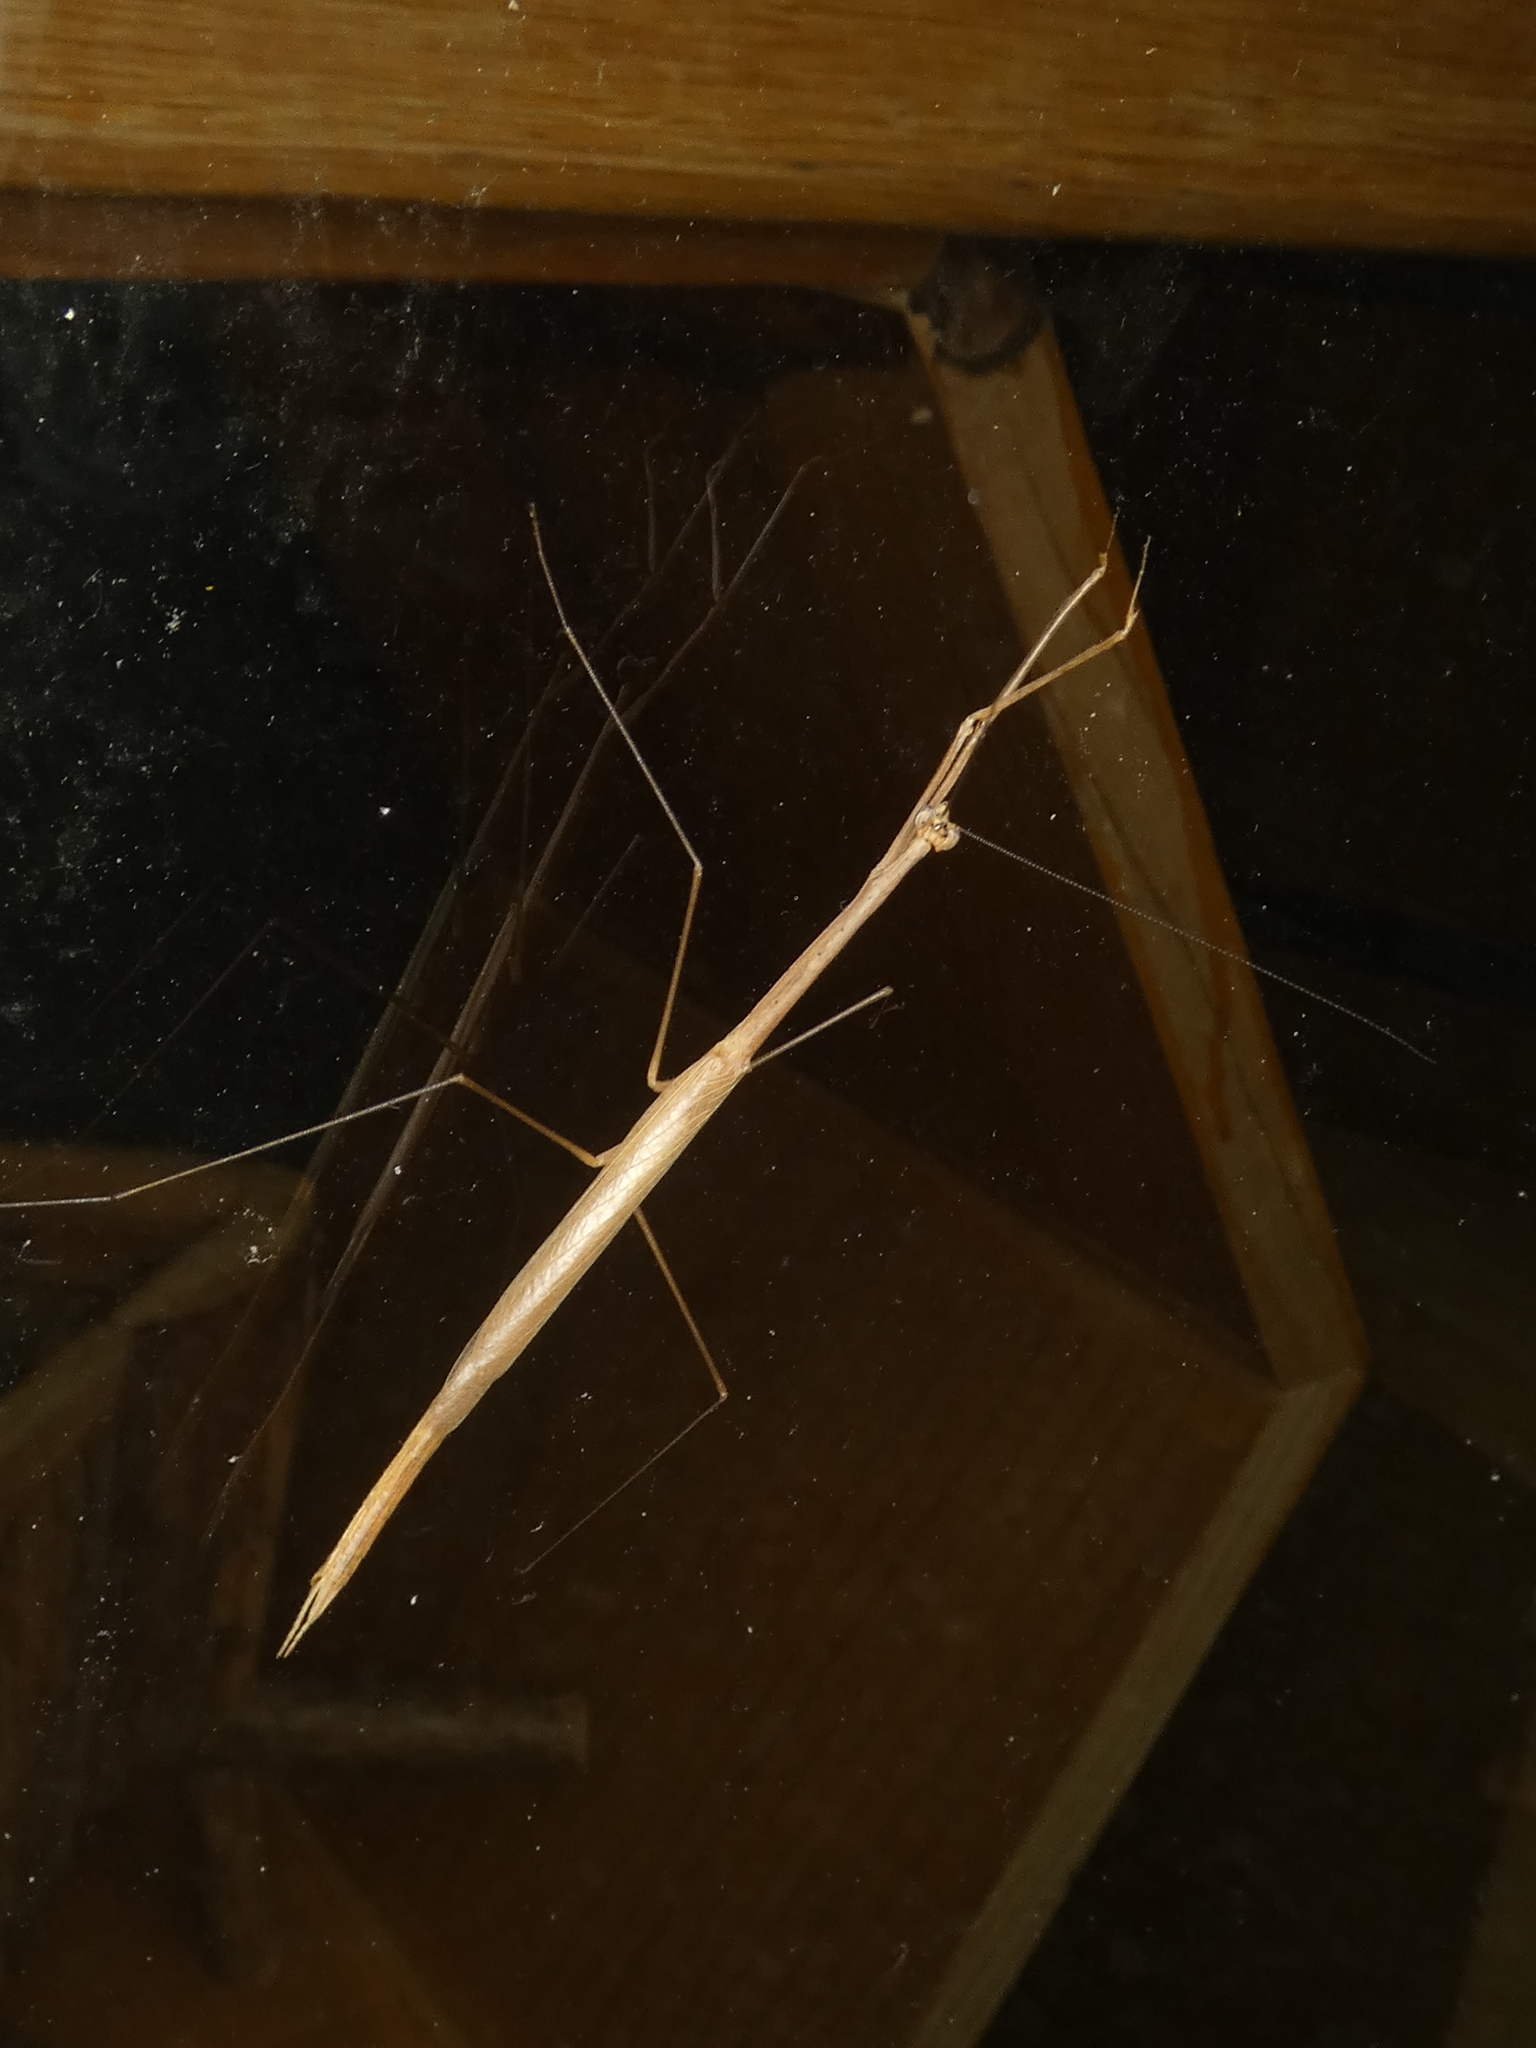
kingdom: Animalia
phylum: Arthropoda
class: Insecta
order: Mantodea
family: Thespidae
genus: Thesprotia
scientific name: Thesprotia graminis
